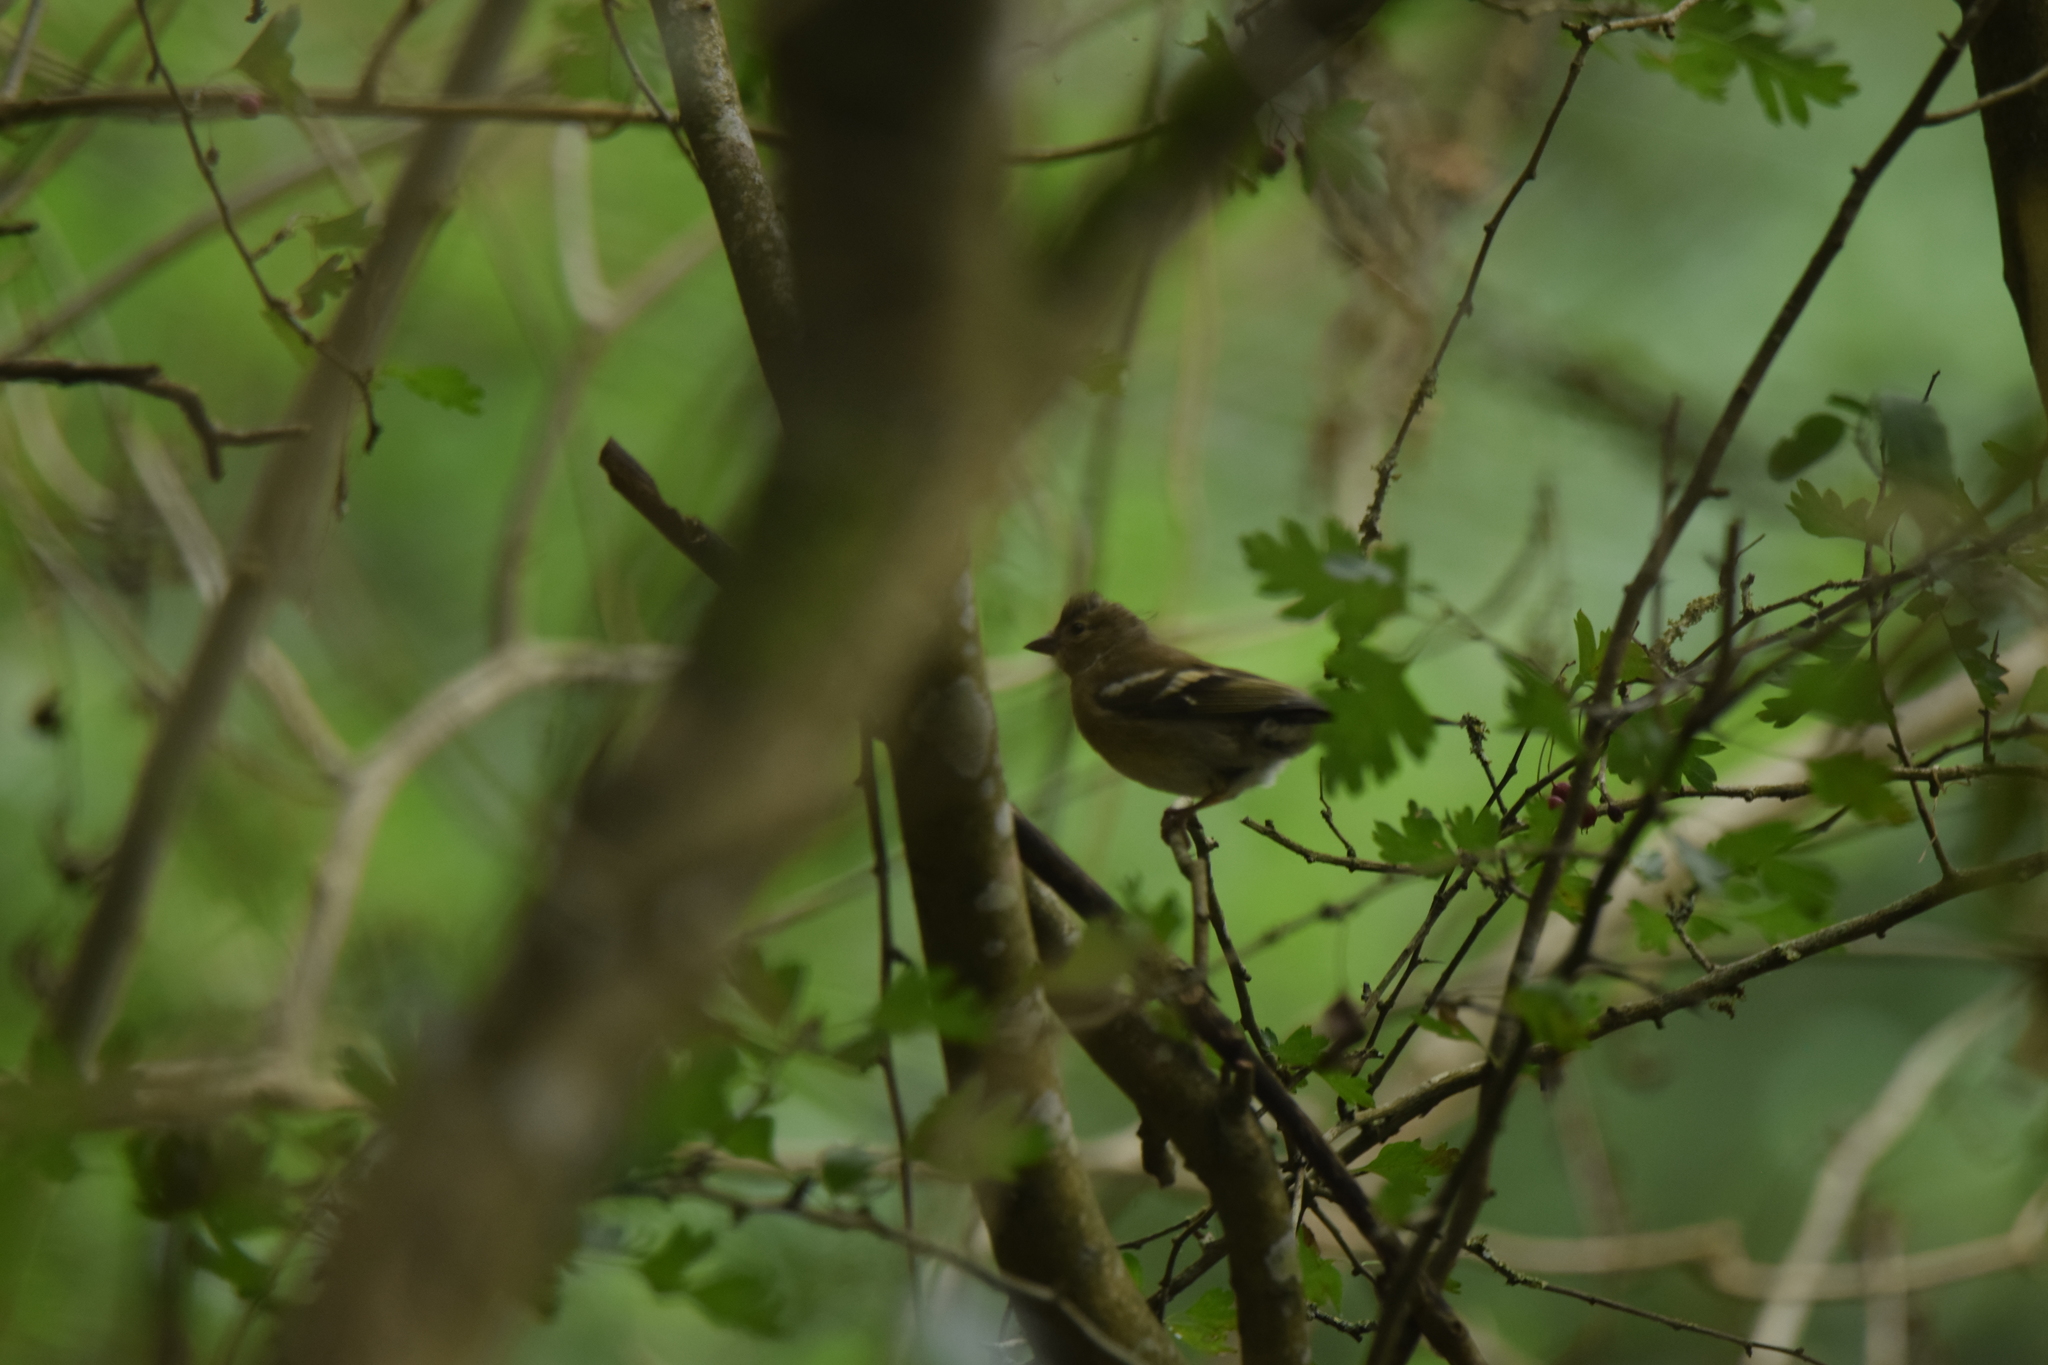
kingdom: Animalia
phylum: Chordata
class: Aves
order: Passeriformes
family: Fringillidae
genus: Fringilla
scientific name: Fringilla coelebs
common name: Common chaffinch
